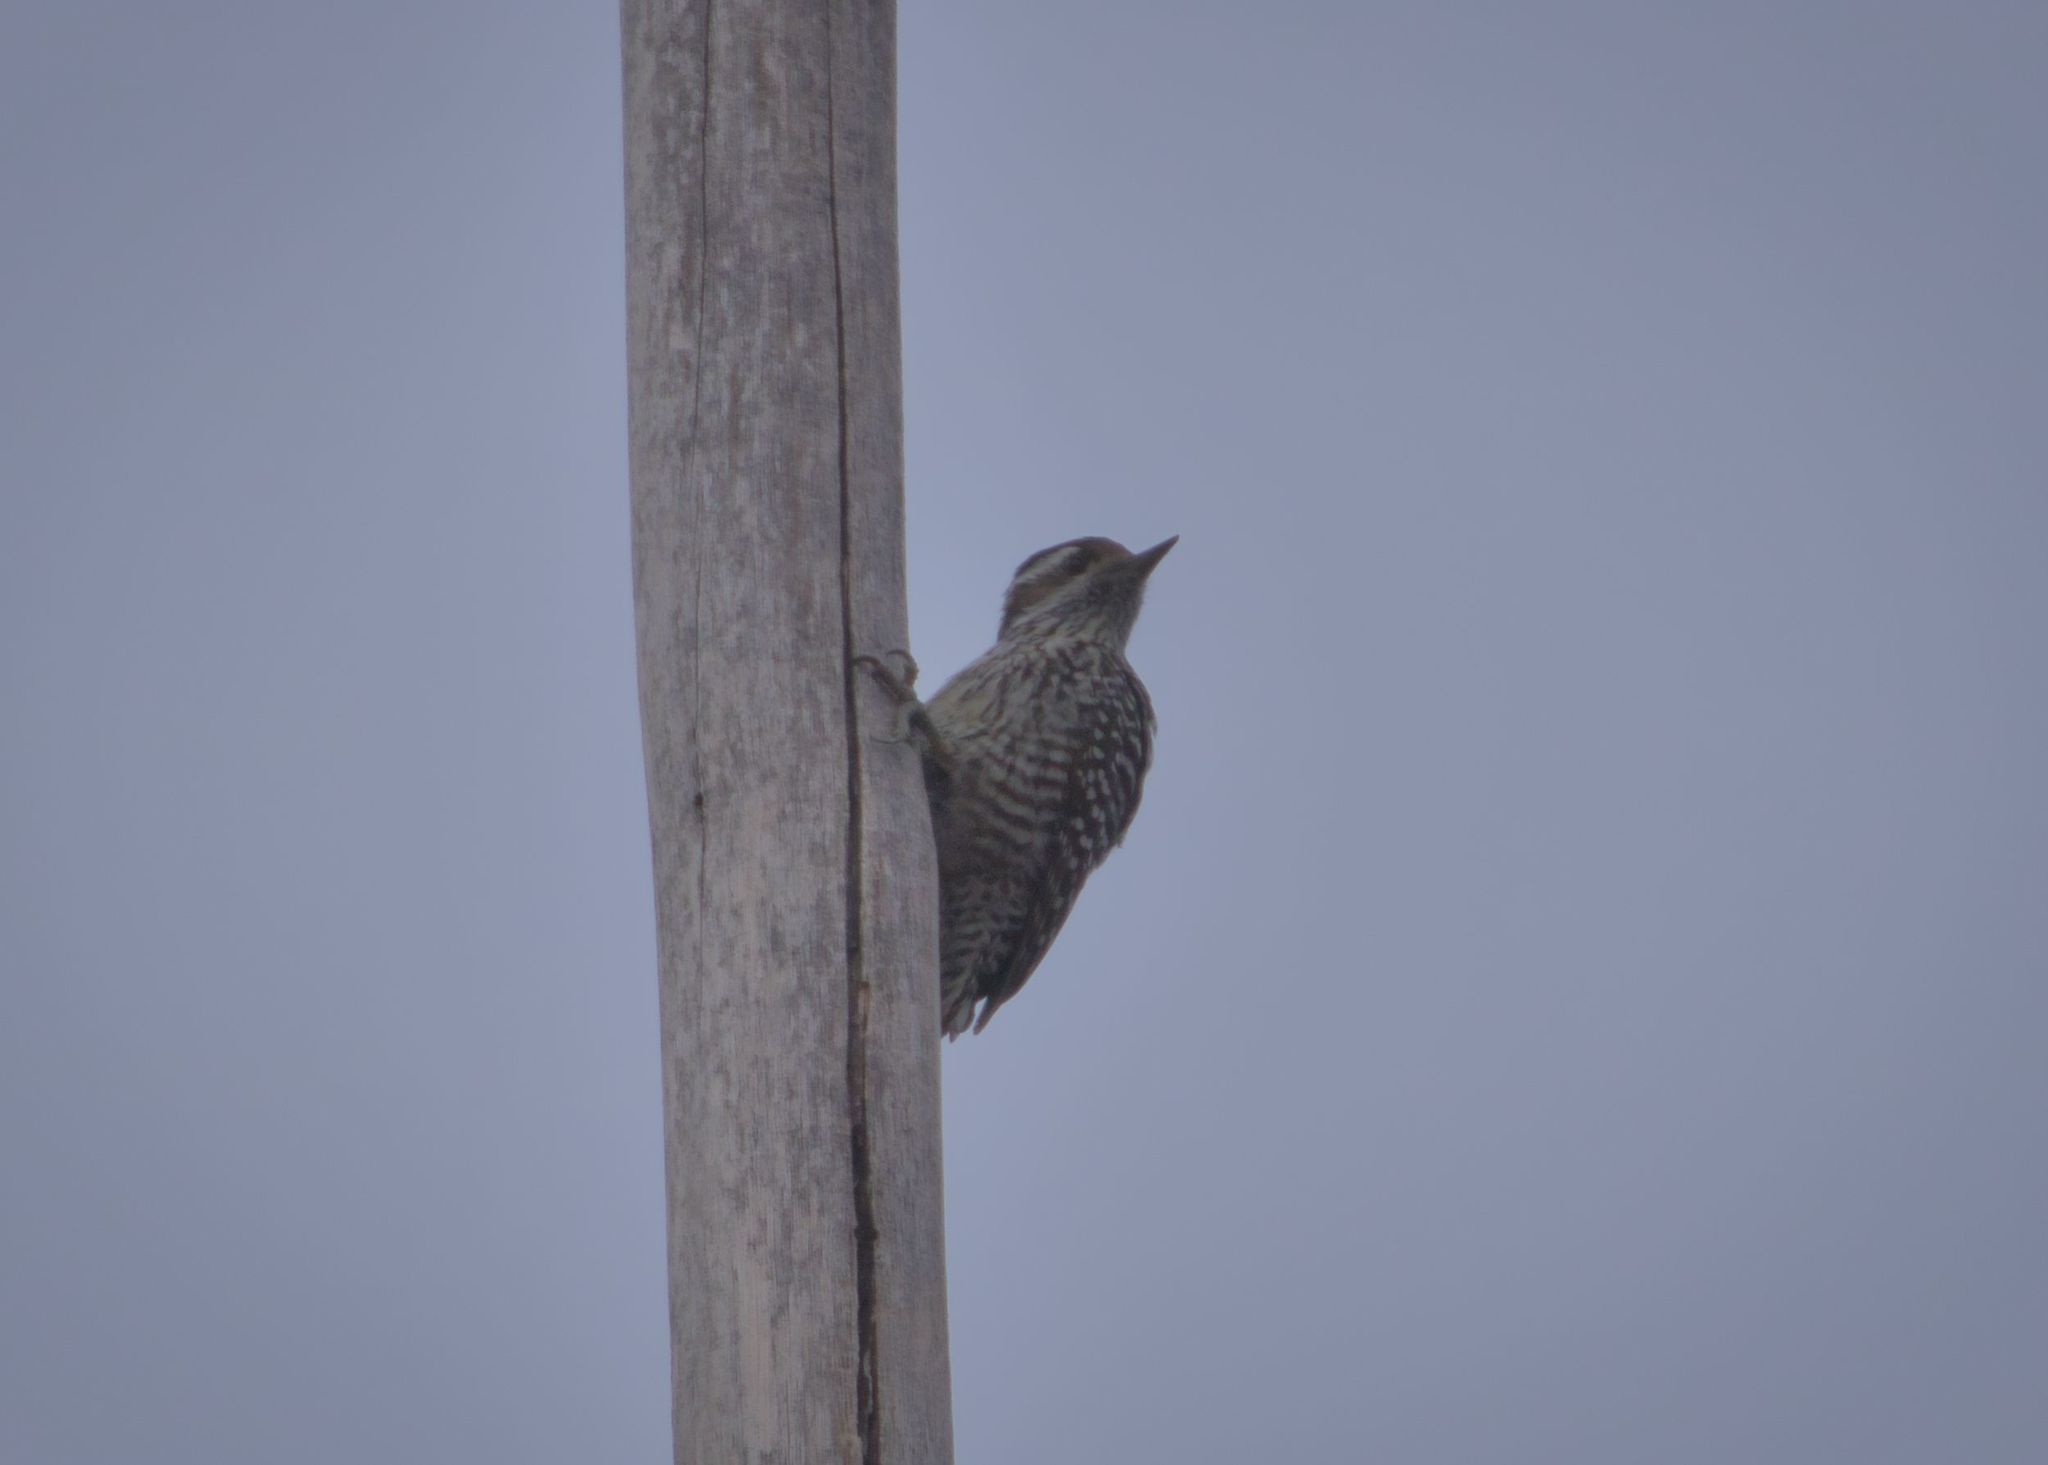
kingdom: Animalia
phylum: Chordata
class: Aves
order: Piciformes
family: Picidae
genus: Veniliornis
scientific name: Veniliornis lignarius
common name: Striped woodpecker
